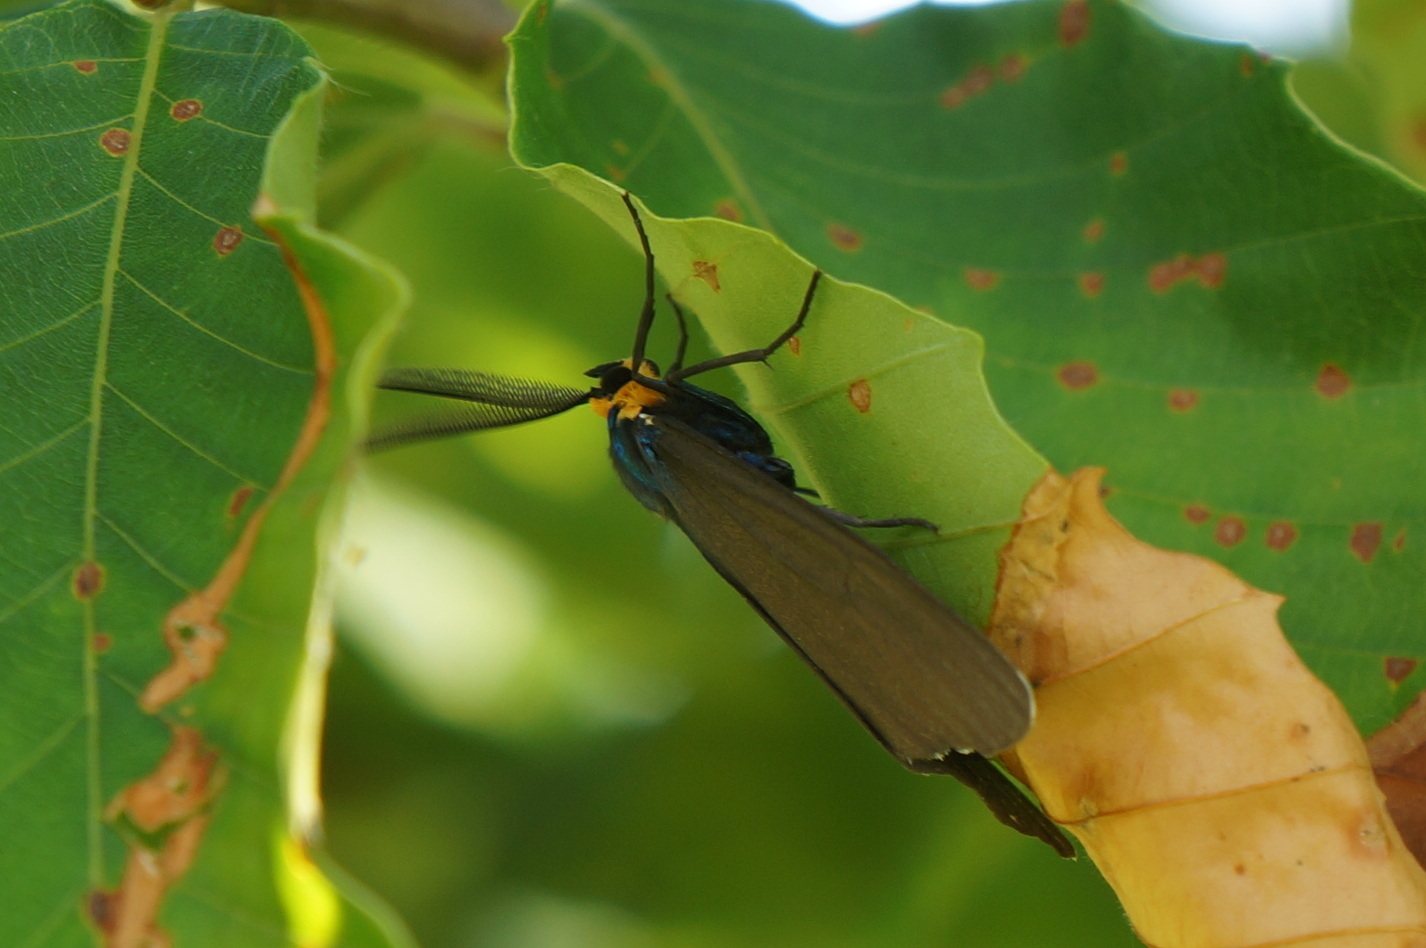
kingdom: Animalia
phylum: Arthropoda
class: Insecta
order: Lepidoptera
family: Erebidae
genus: Ctenucha
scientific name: Ctenucha virginica
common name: Virginia ctenucha moth
